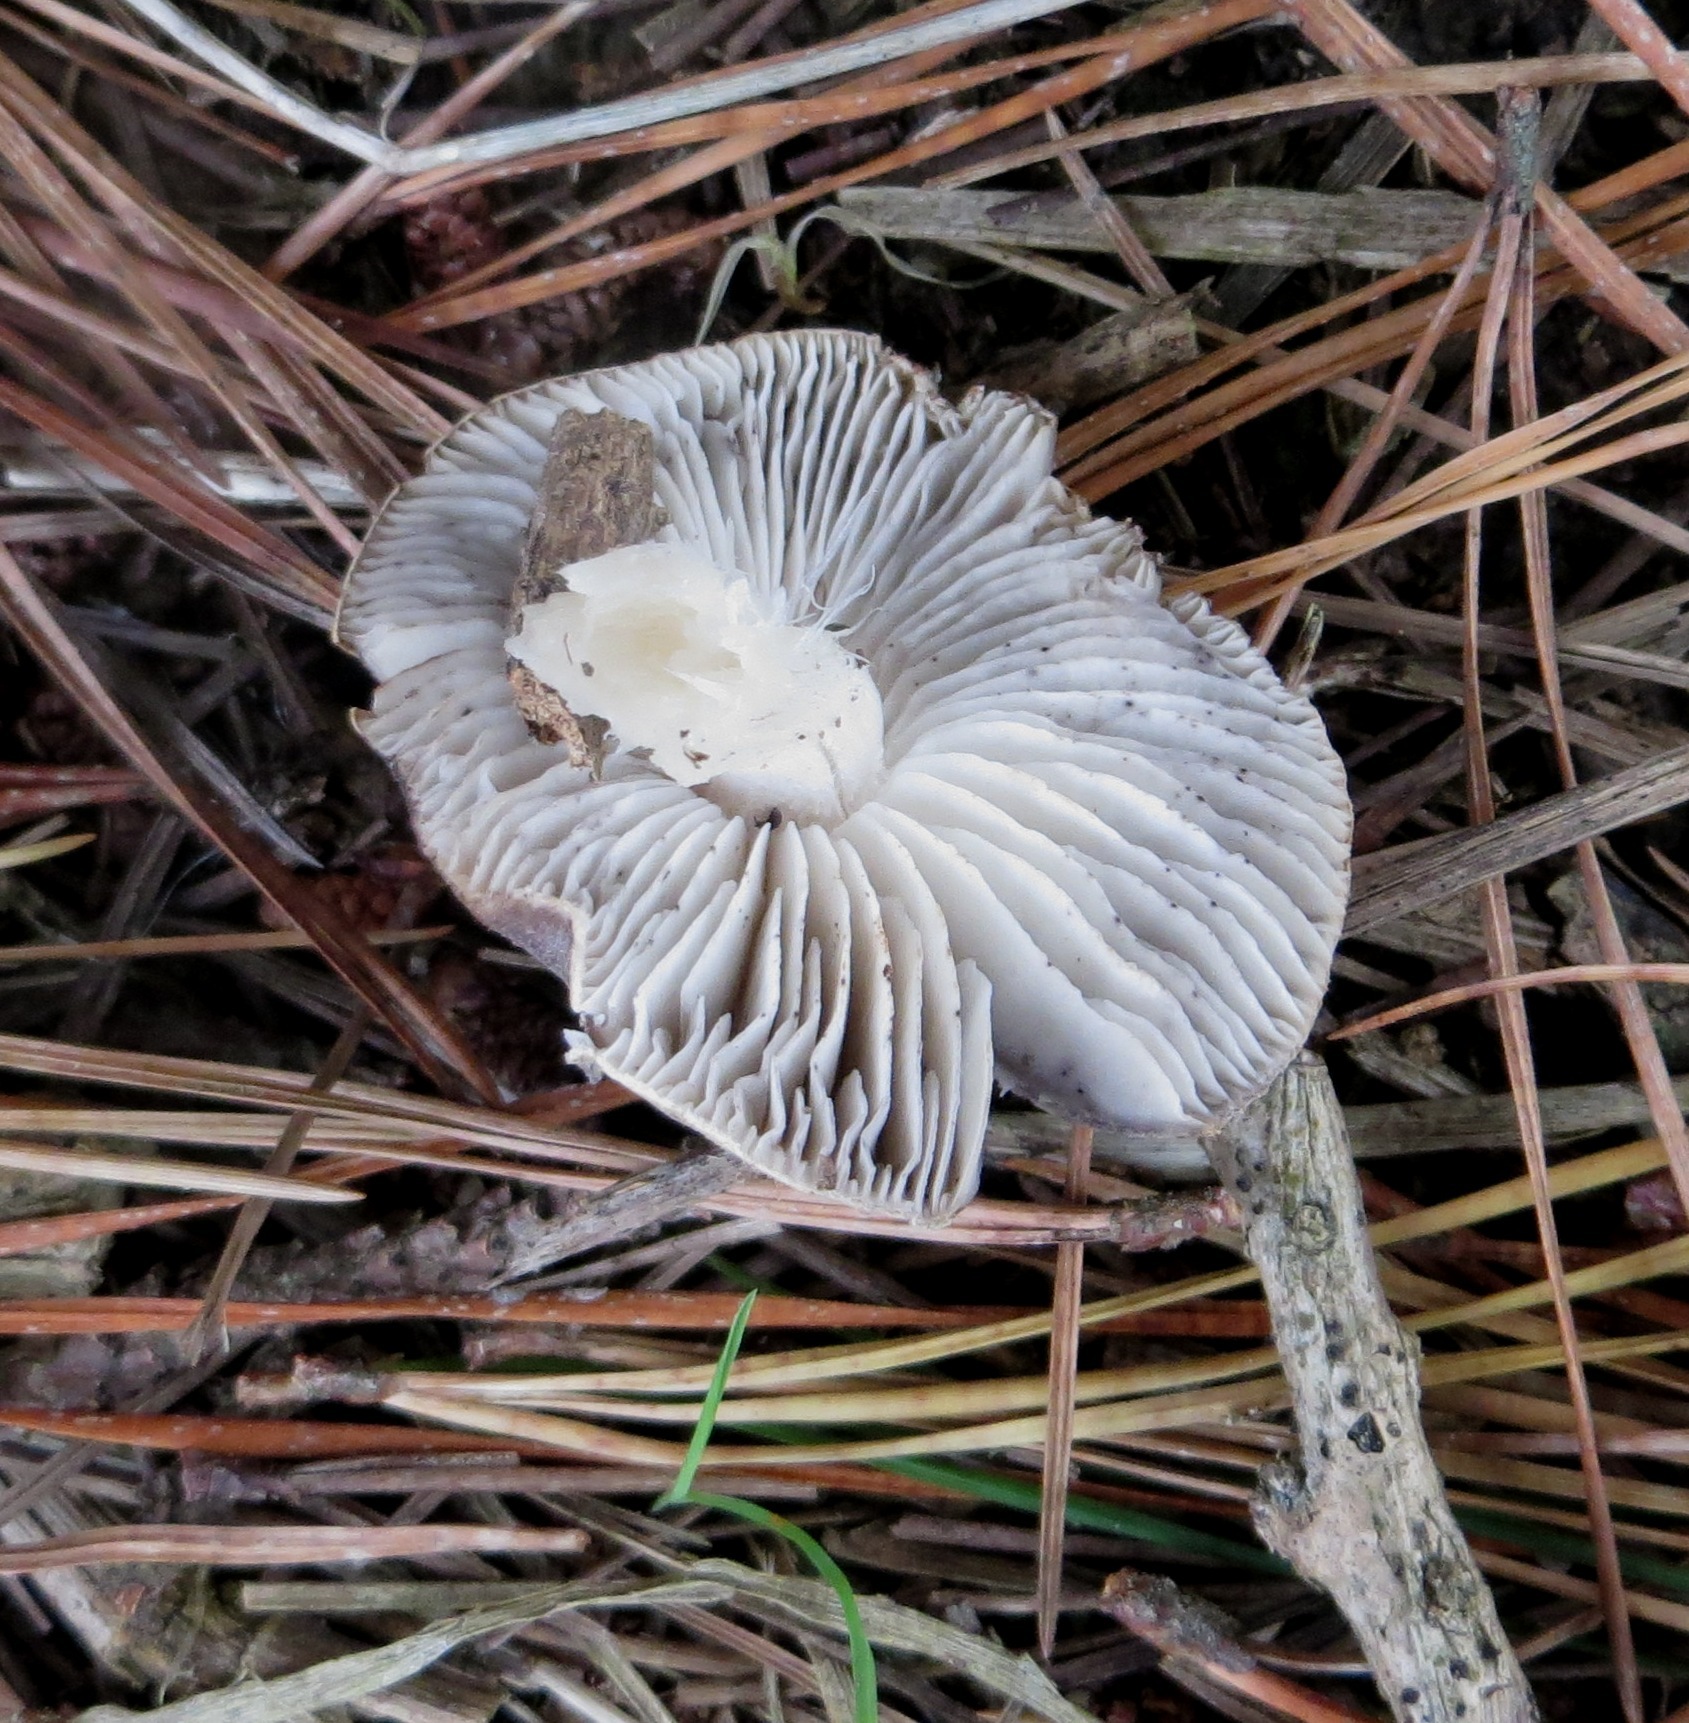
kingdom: Fungi
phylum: Basidiomycota
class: Agaricomycetes
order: Agaricales
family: Tricholomataceae
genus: Tricholoma
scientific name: Tricholoma terreum
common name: Grey knight
